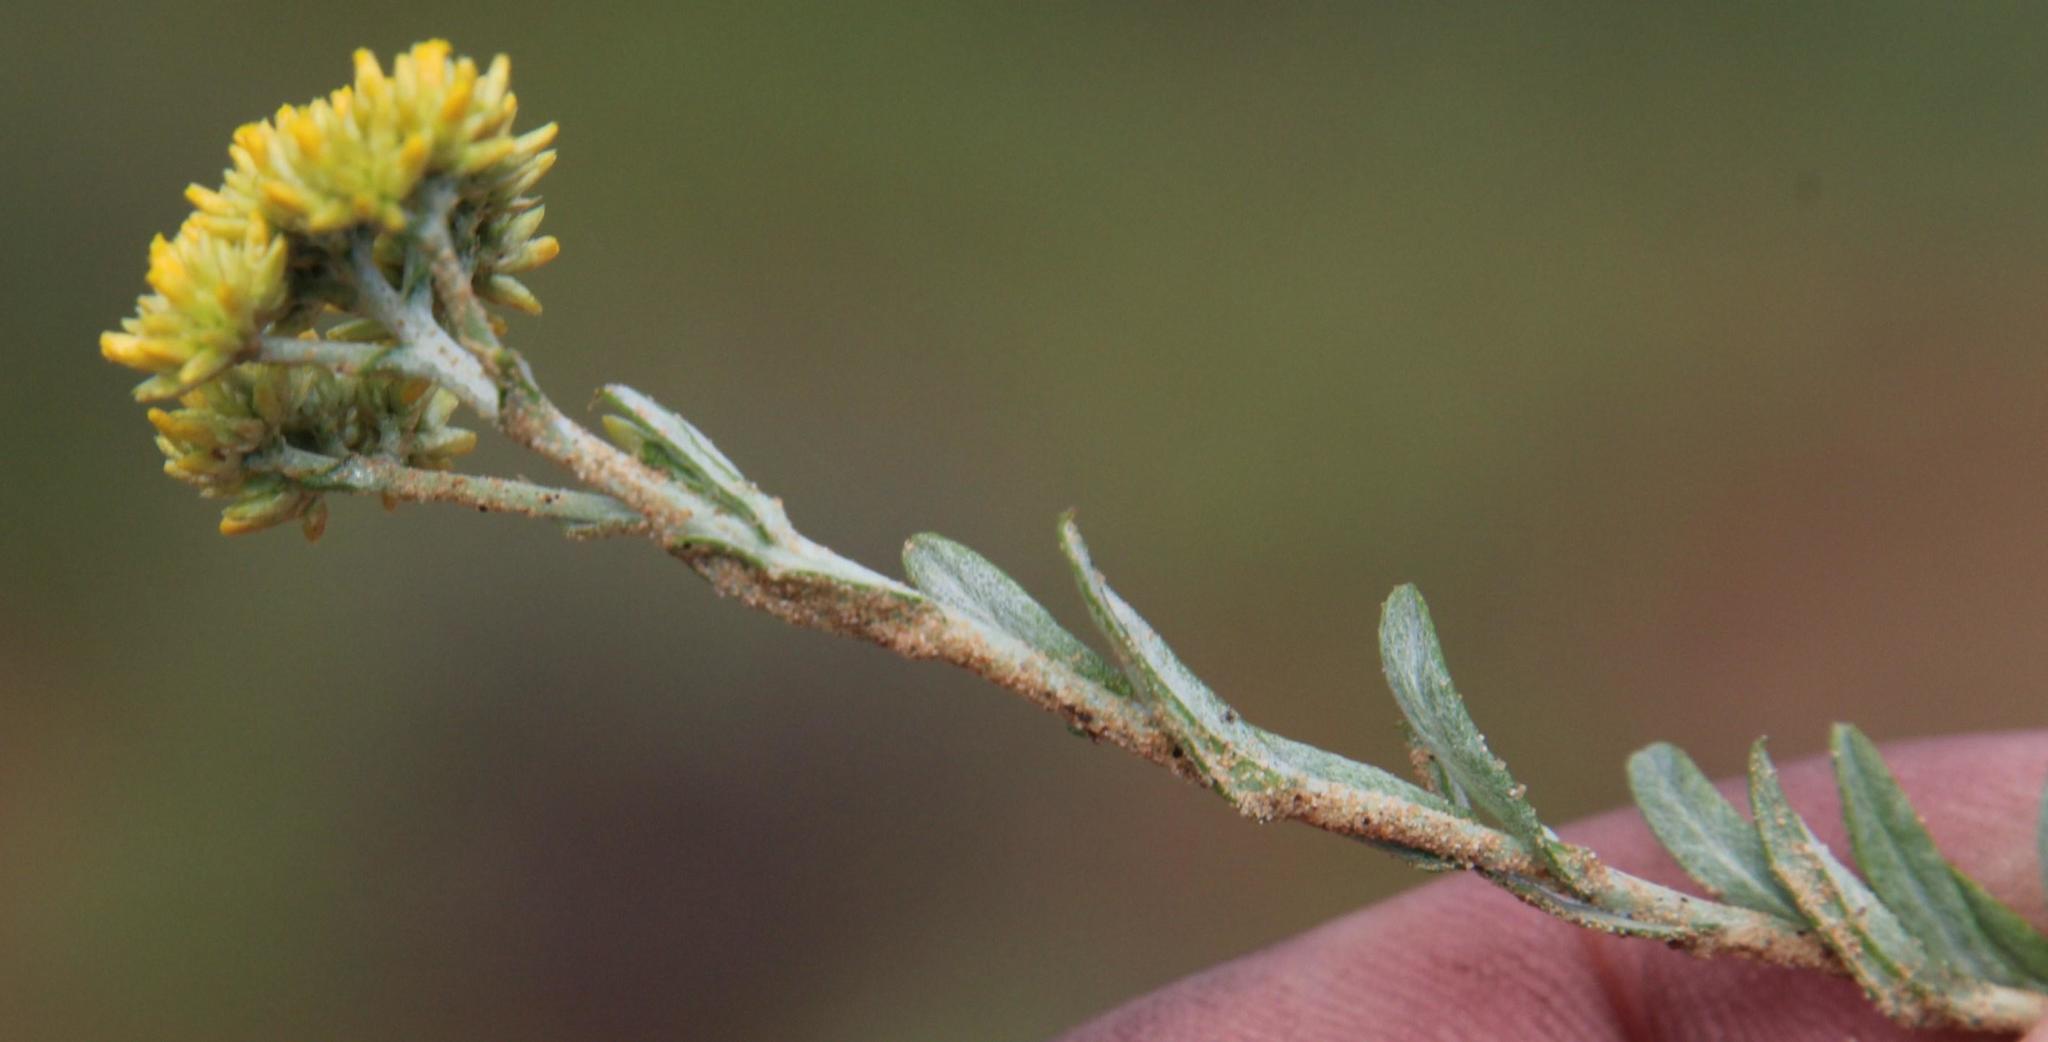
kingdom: Plantae
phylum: Tracheophyta
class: Magnoliopsida
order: Asterales
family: Asteraceae
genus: Helichrysum
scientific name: Helichrysum rutilans
